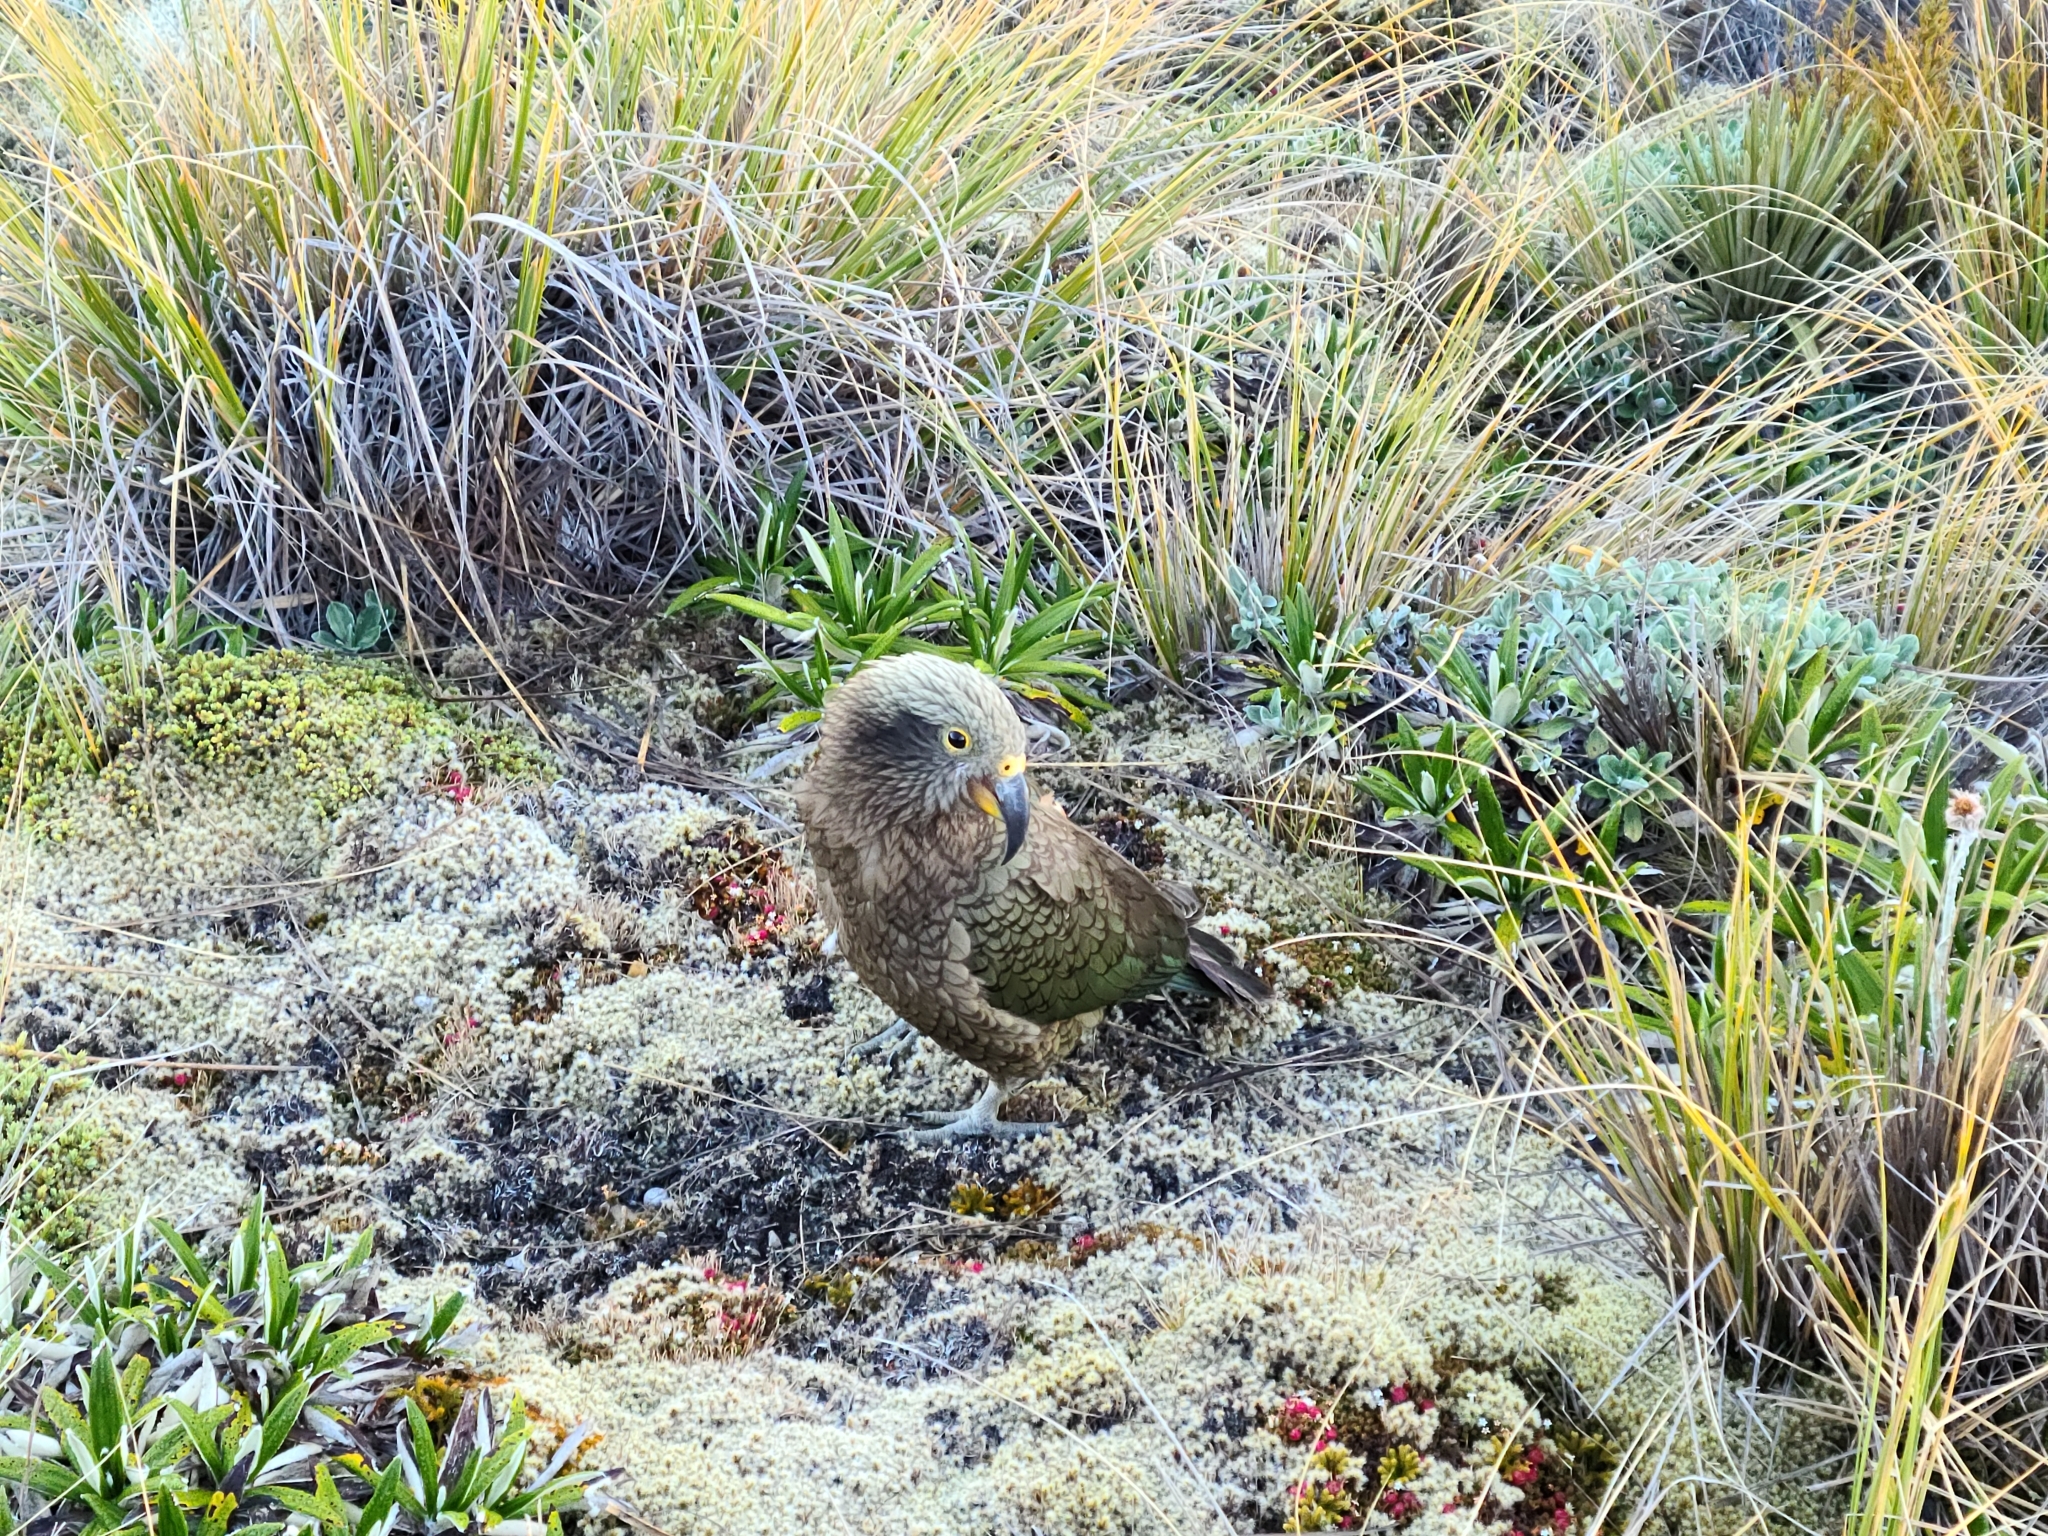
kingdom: Animalia
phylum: Chordata
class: Aves
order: Psittaciformes
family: Psittacidae
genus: Nestor
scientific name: Nestor notabilis
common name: Kea
